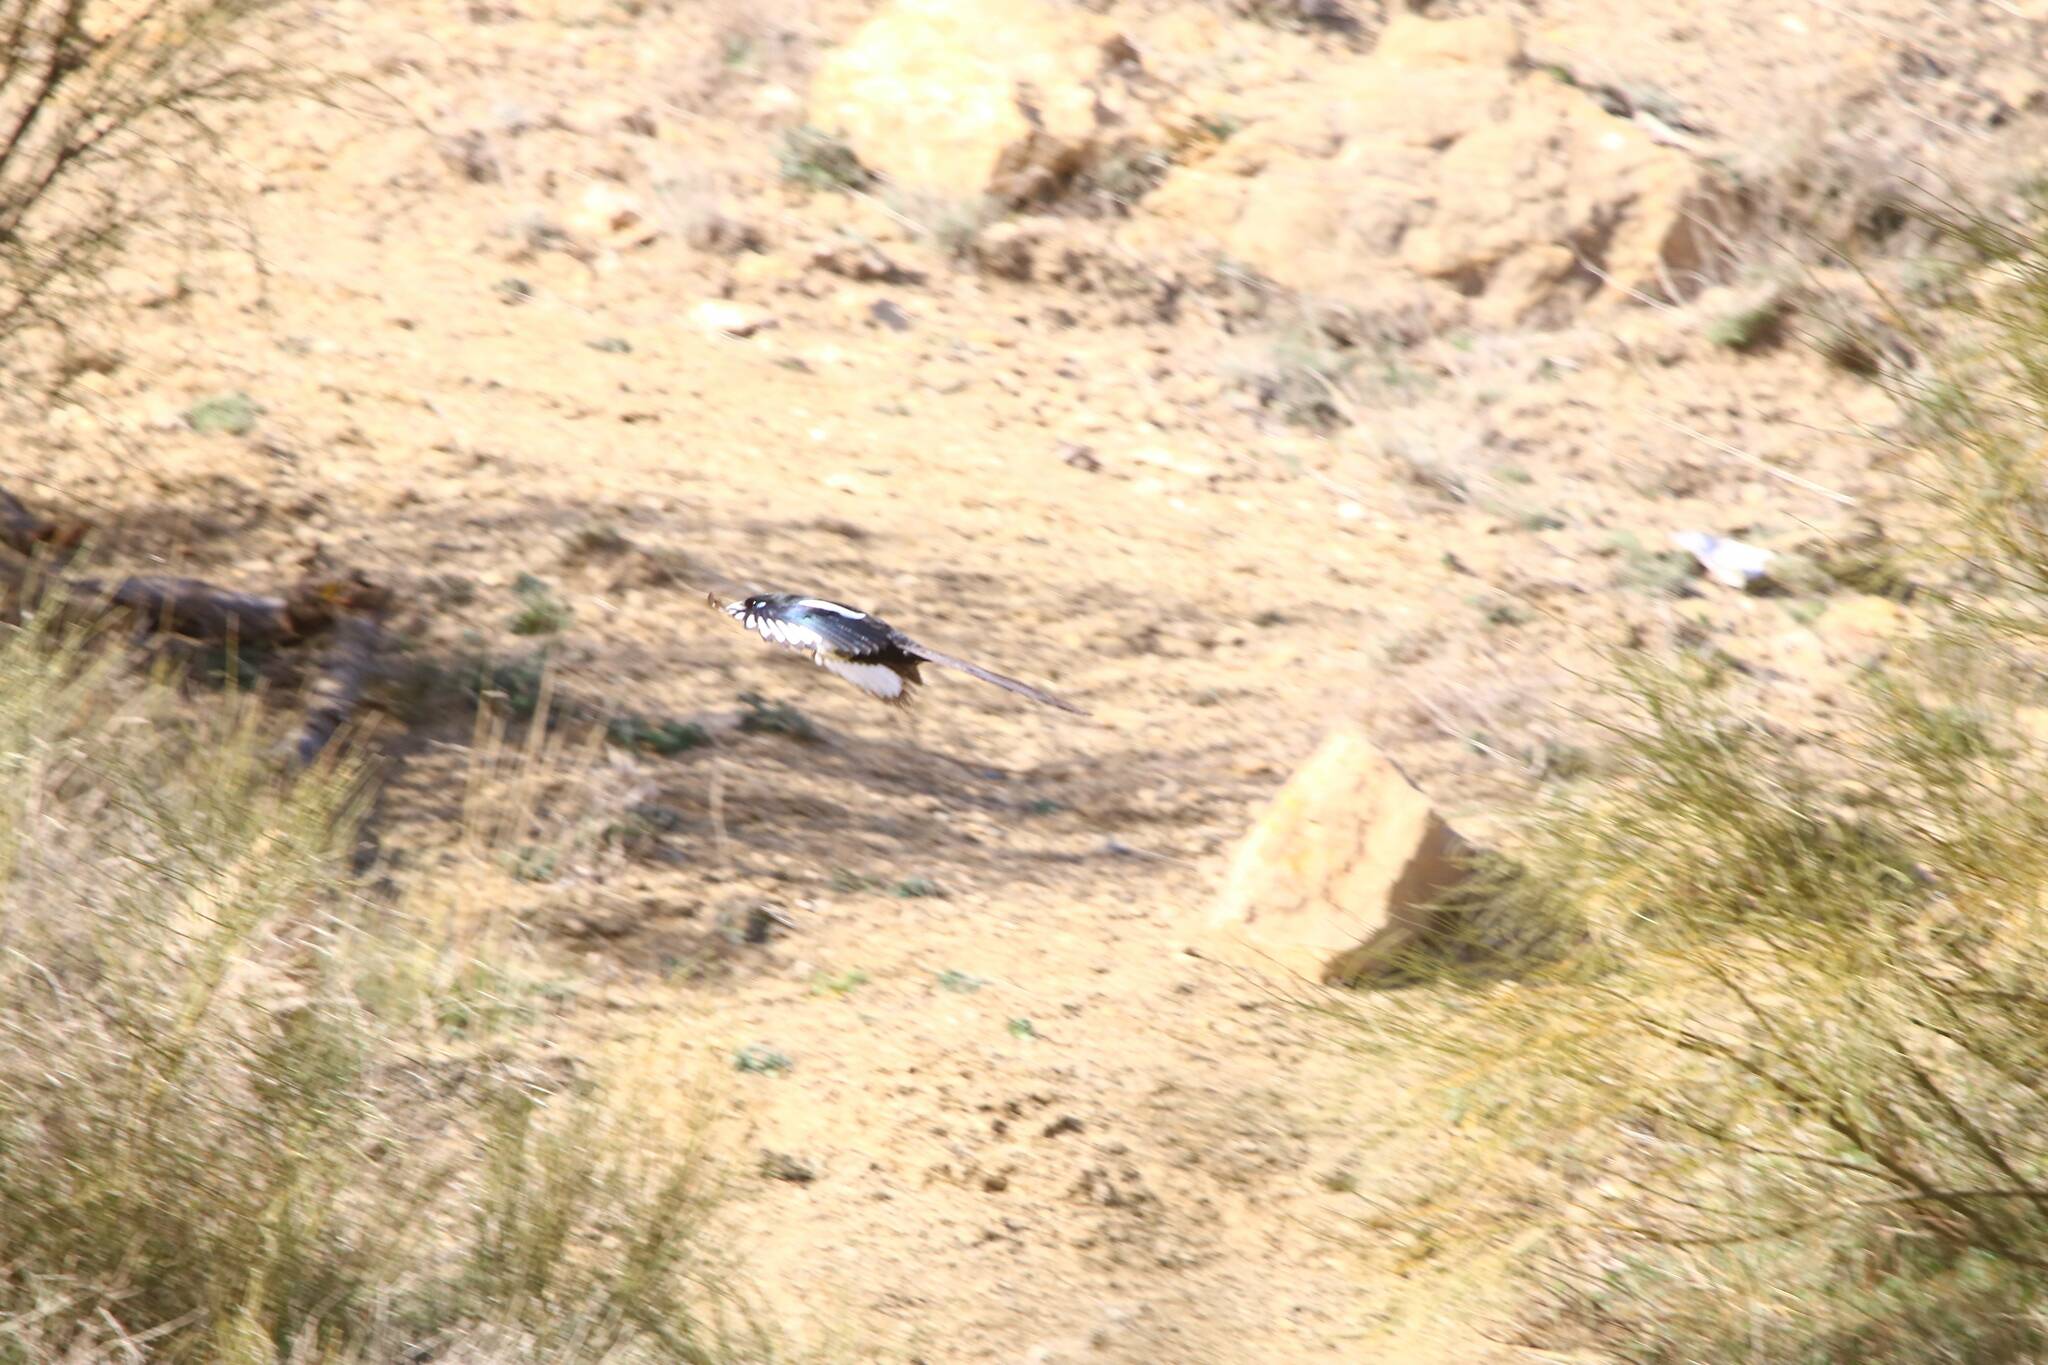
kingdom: Animalia
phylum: Chordata
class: Aves
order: Passeriformes
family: Corvidae
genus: Pica
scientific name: Pica mauritanica
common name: Maghreb magpie
